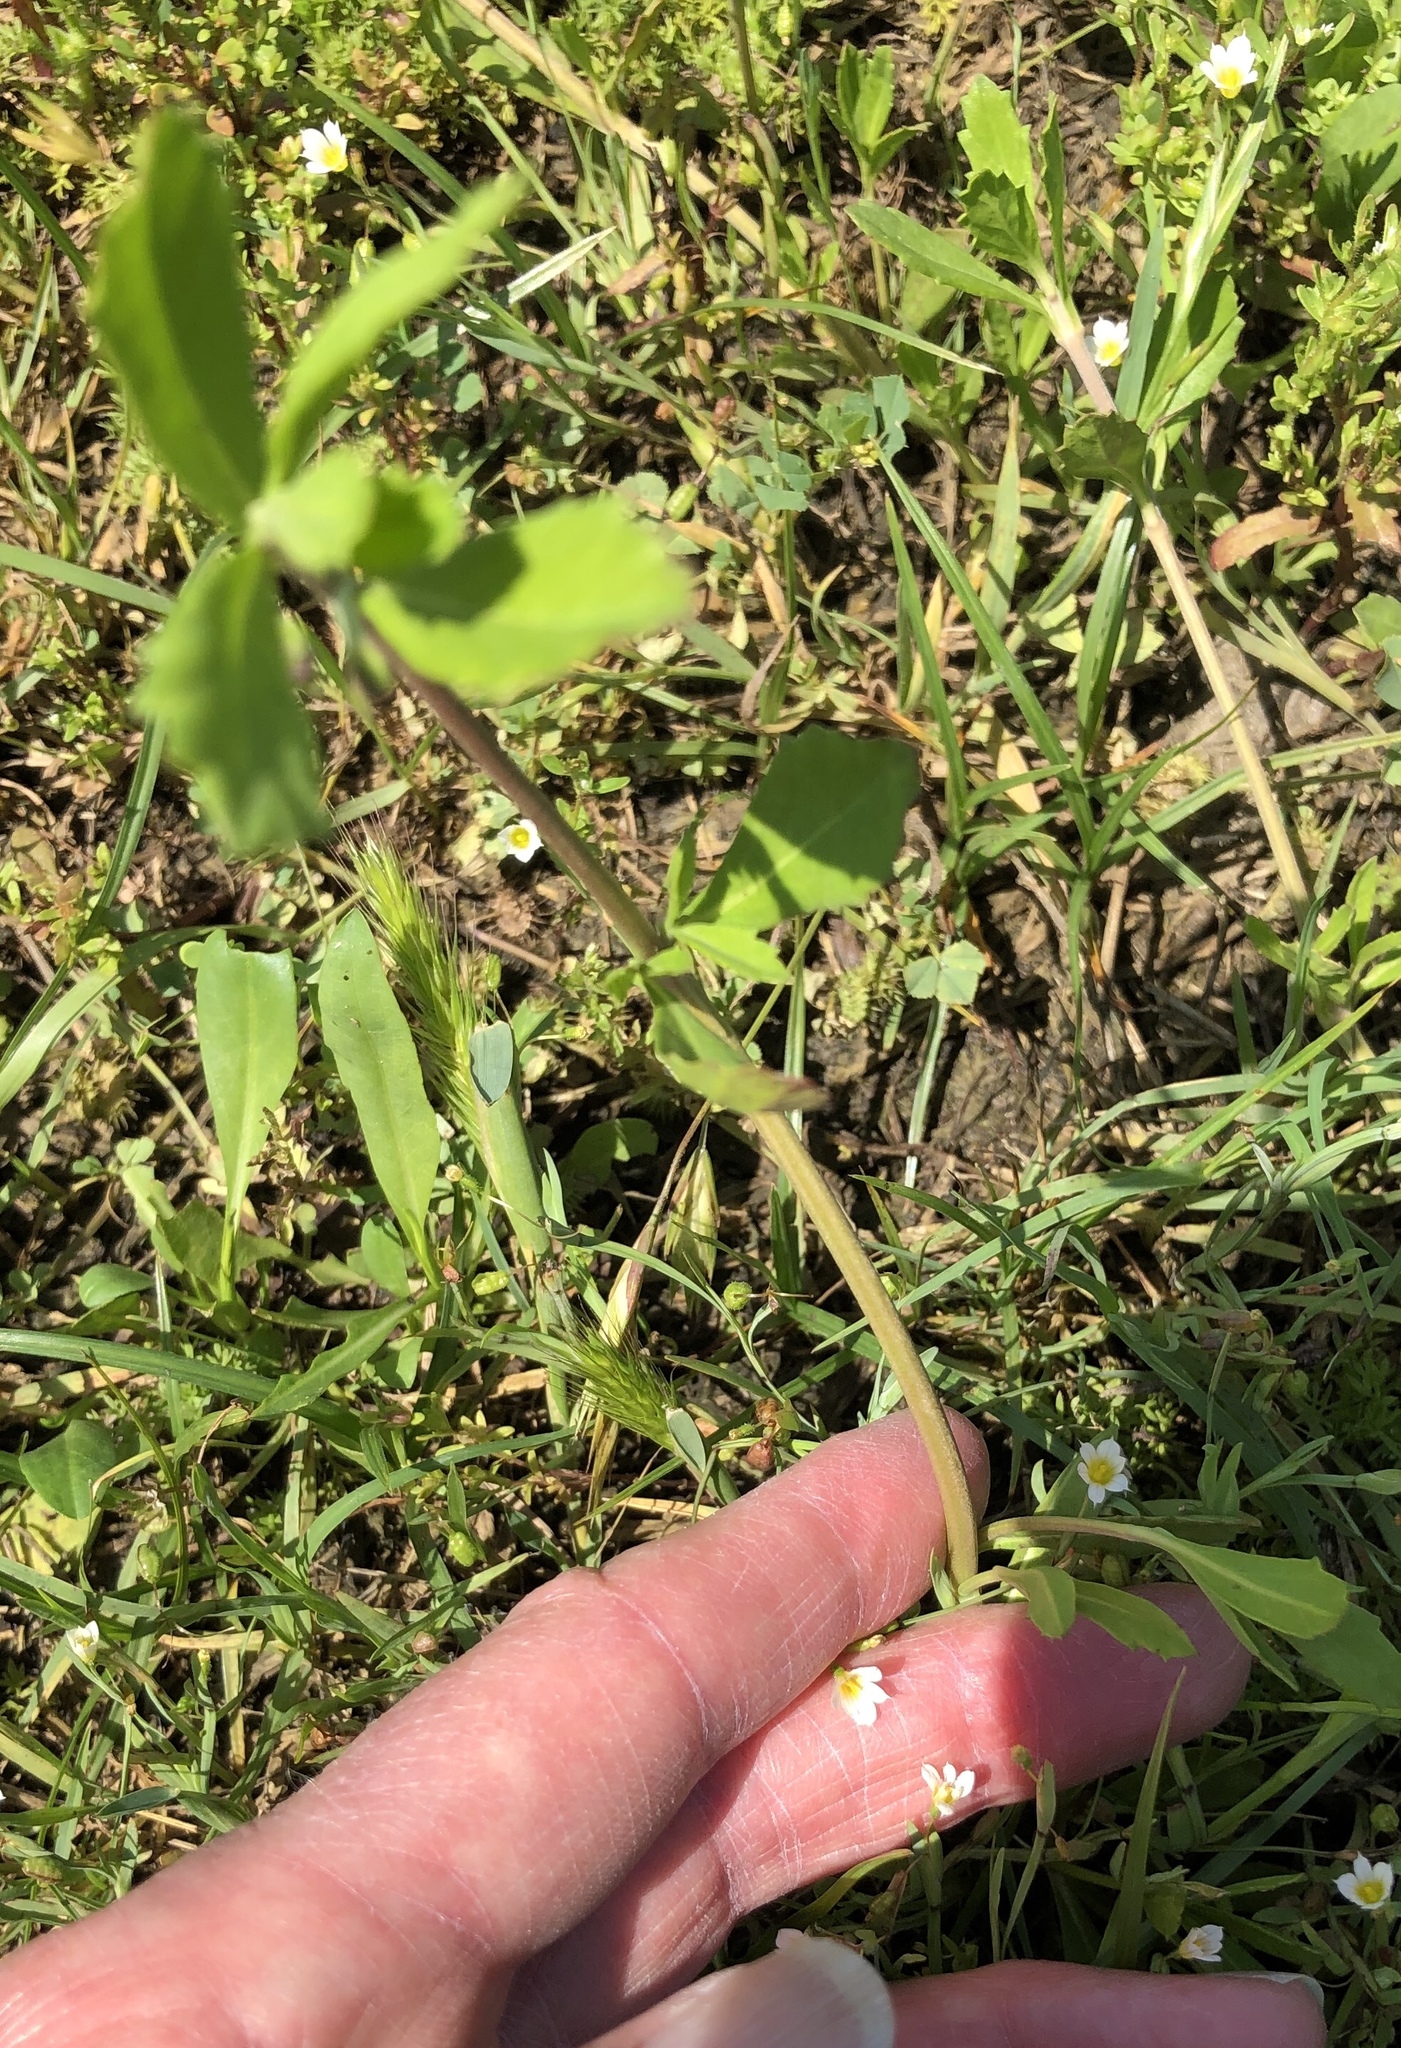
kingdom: Plantae
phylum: Tracheophyta
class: Magnoliopsida
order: Lamiales
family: Verbenaceae
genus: Phyla
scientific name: Phyla nodiflora
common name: Frogfruit
